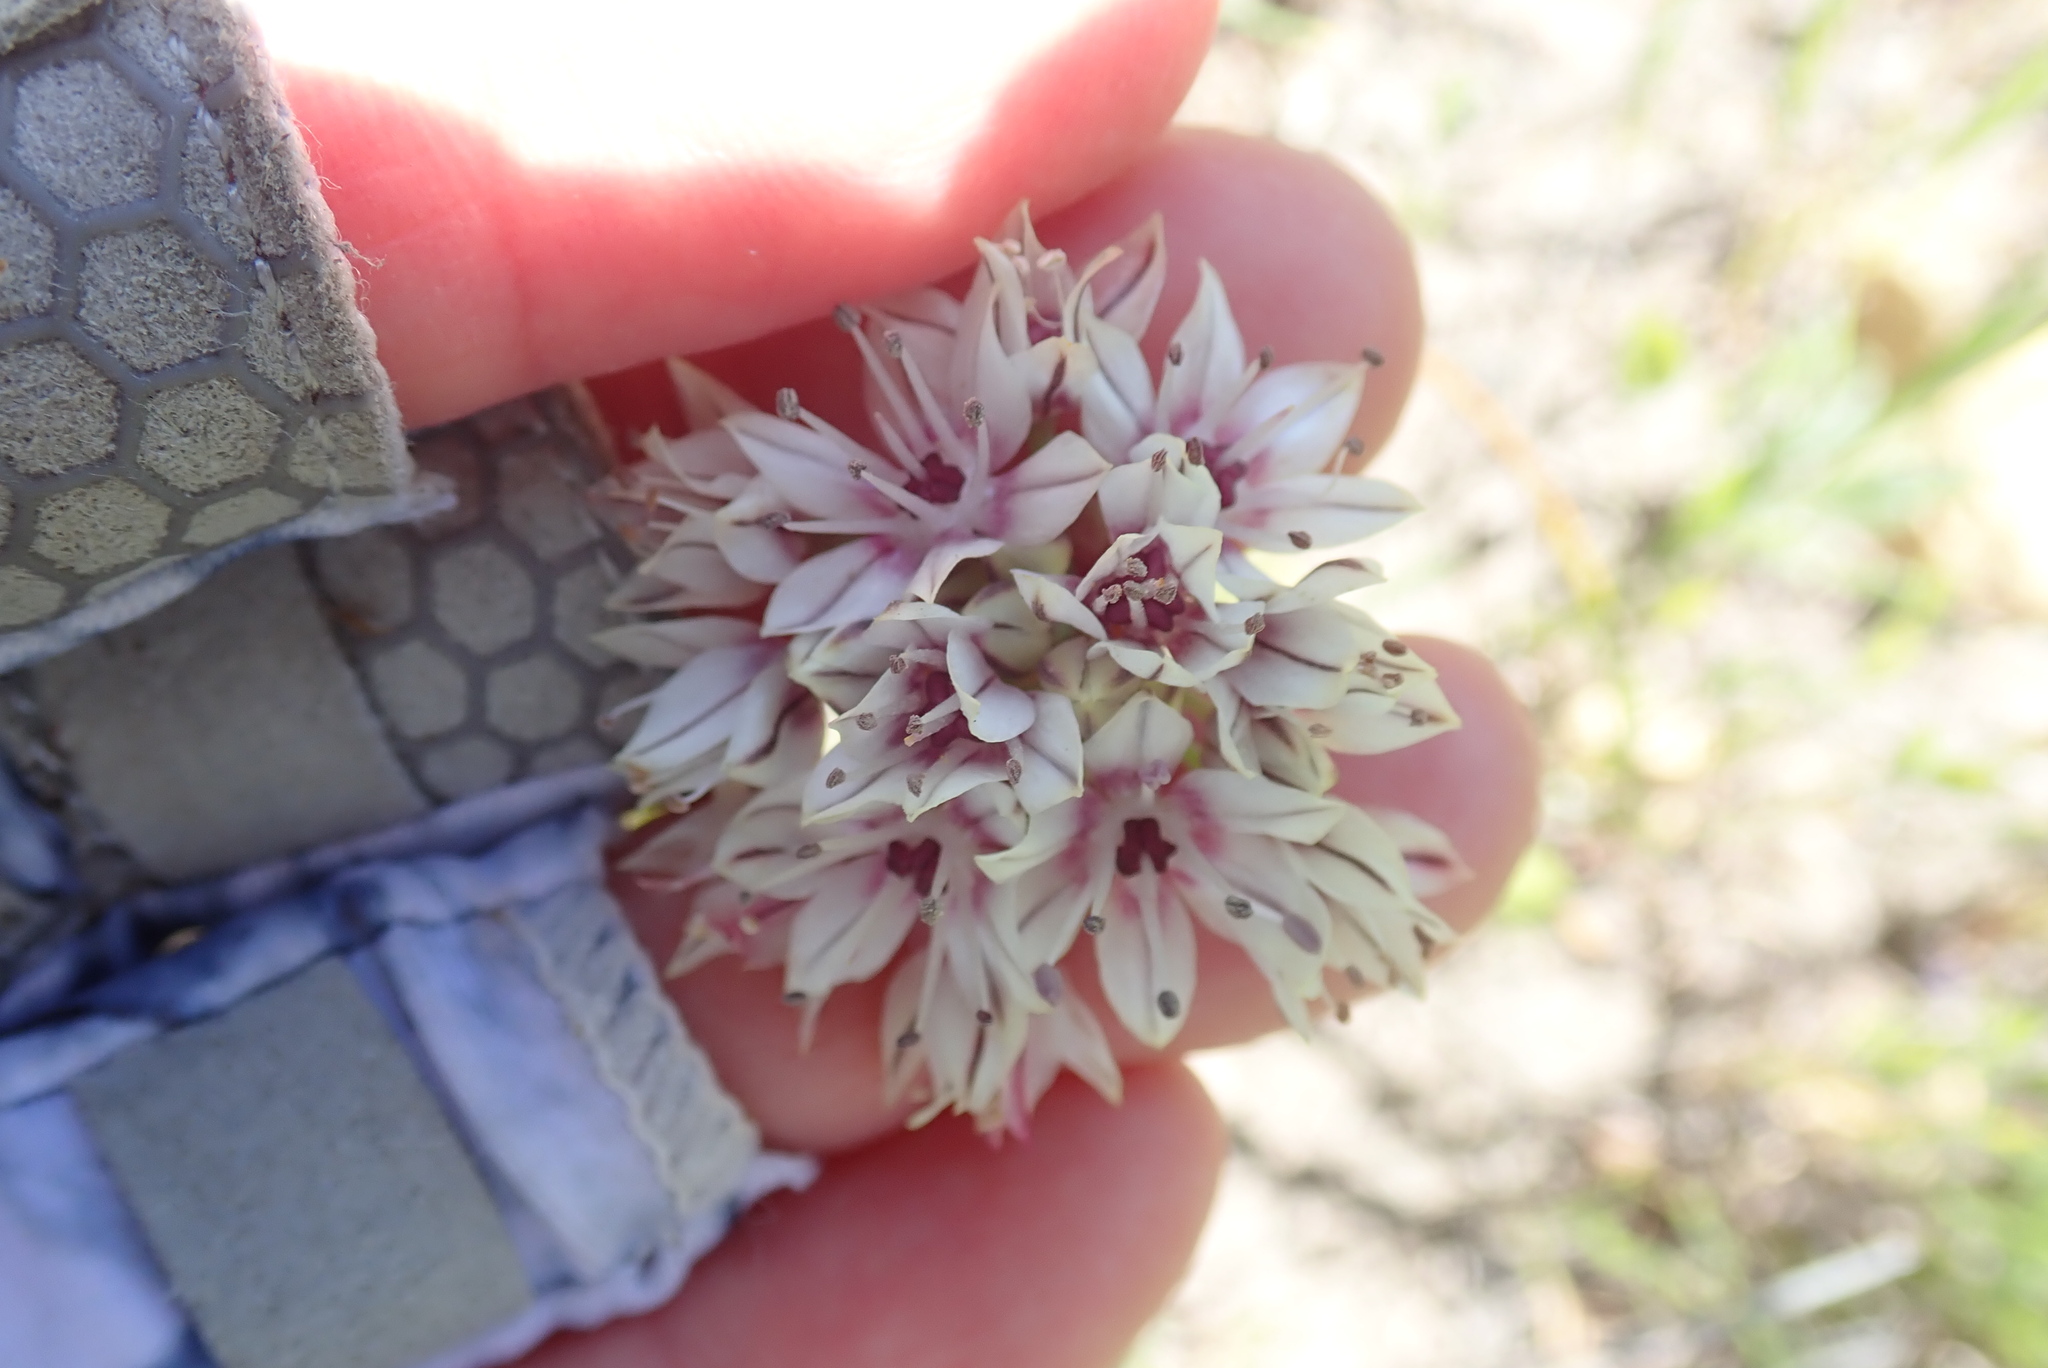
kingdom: Plantae
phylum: Tracheophyta
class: Liliopsida
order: Asparagales
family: Amaryllidaceae
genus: Allium
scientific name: Allium haematochiton
